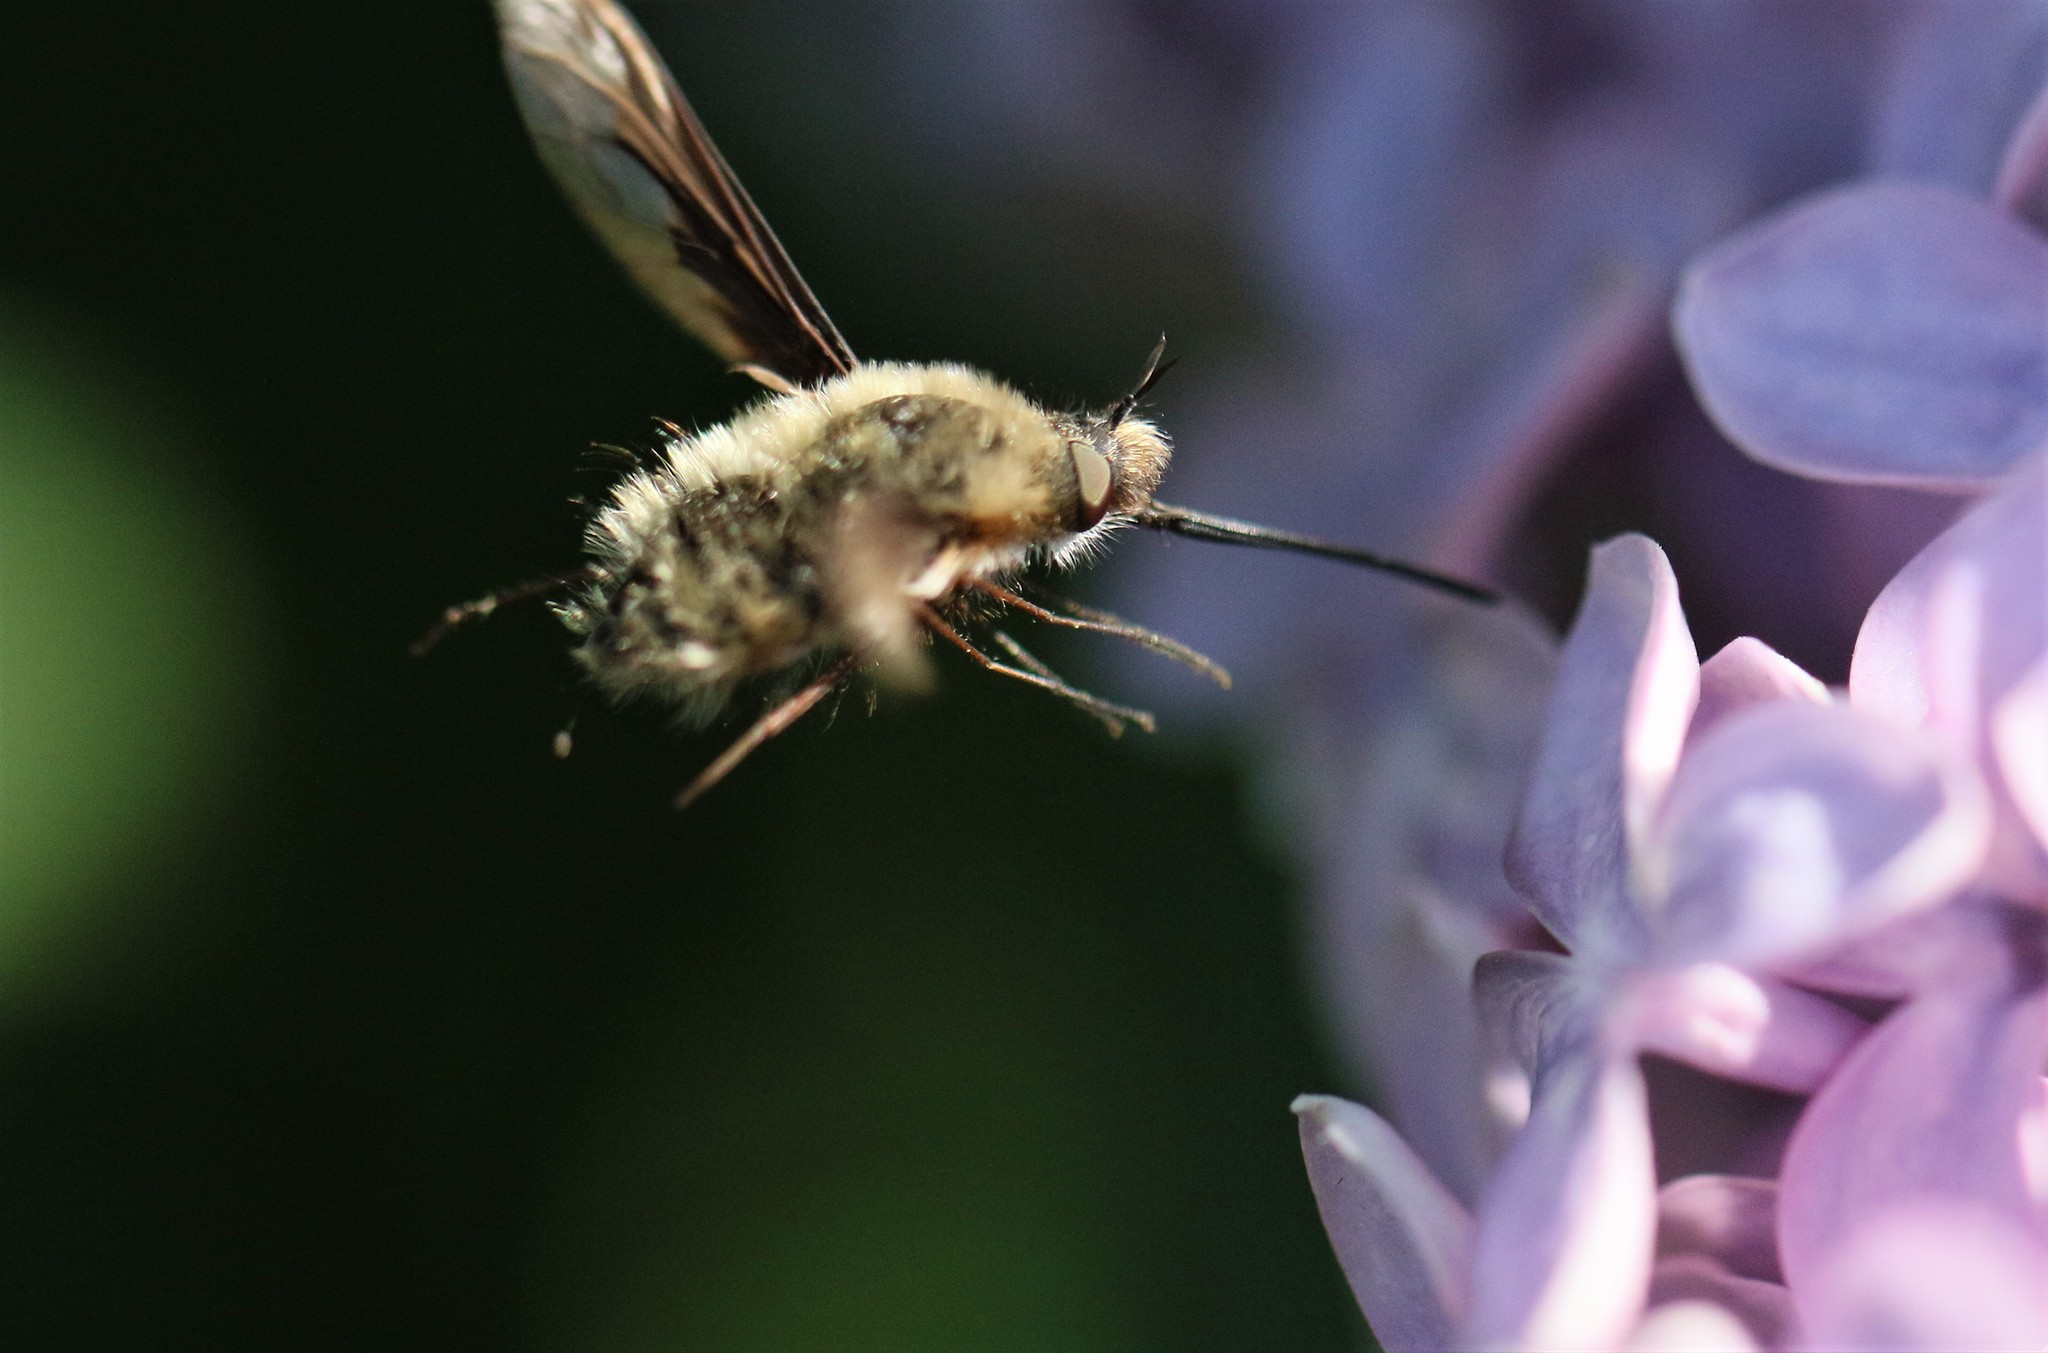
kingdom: Animalia
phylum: Arthropoda
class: Insecta
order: Diptera
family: Bombyliidae
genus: Bombylius
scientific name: Bombylius major
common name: Bee fly
